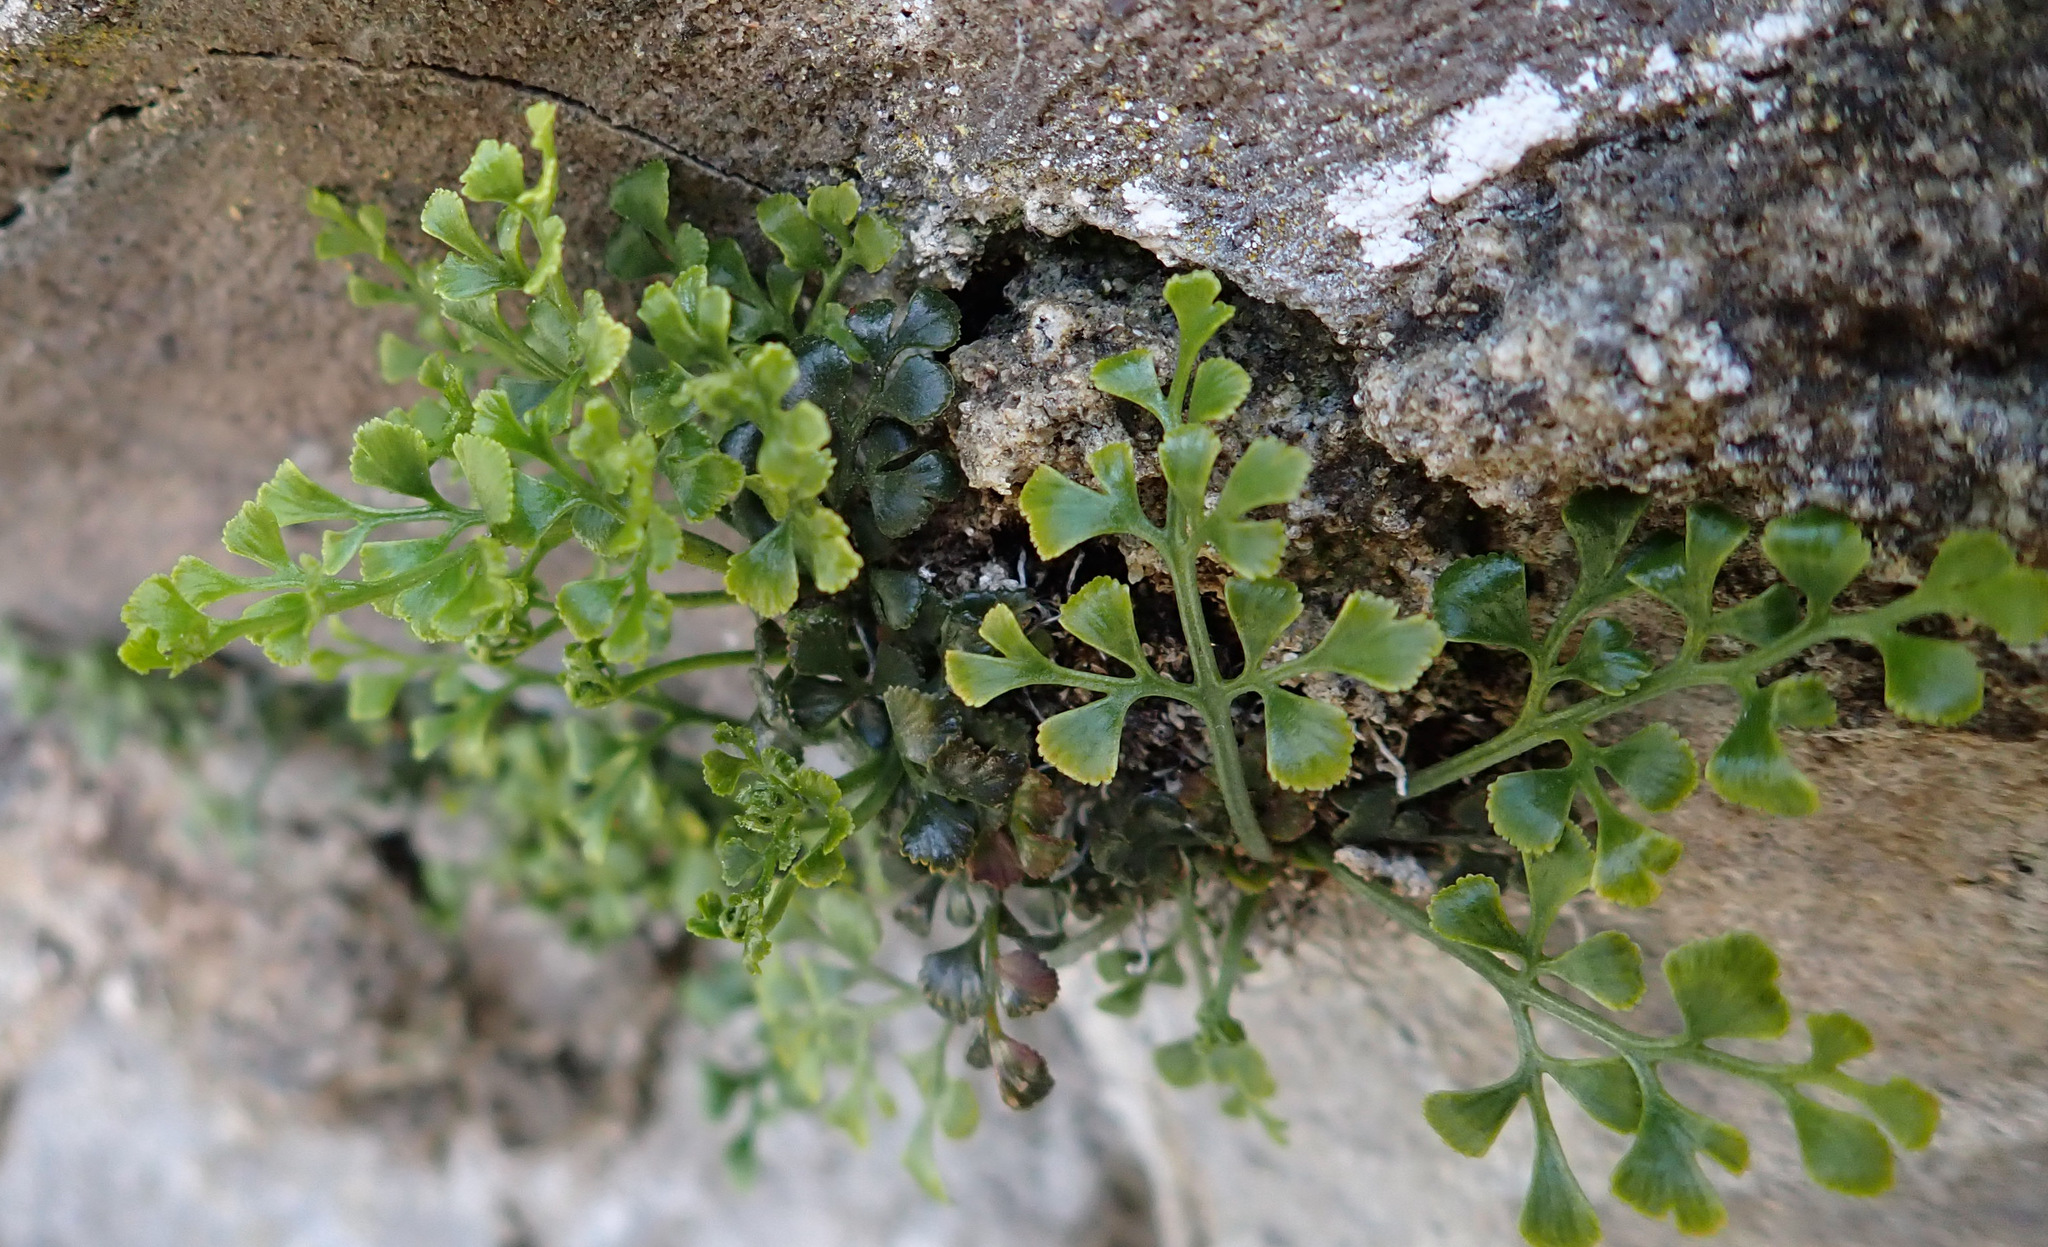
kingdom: Plantae
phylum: Tracheophyta
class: Polypodiopsida
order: Polypodiales
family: Aspleniaceae
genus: Asplenium
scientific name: Asplenium ruta-muraria
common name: Wall-rue
